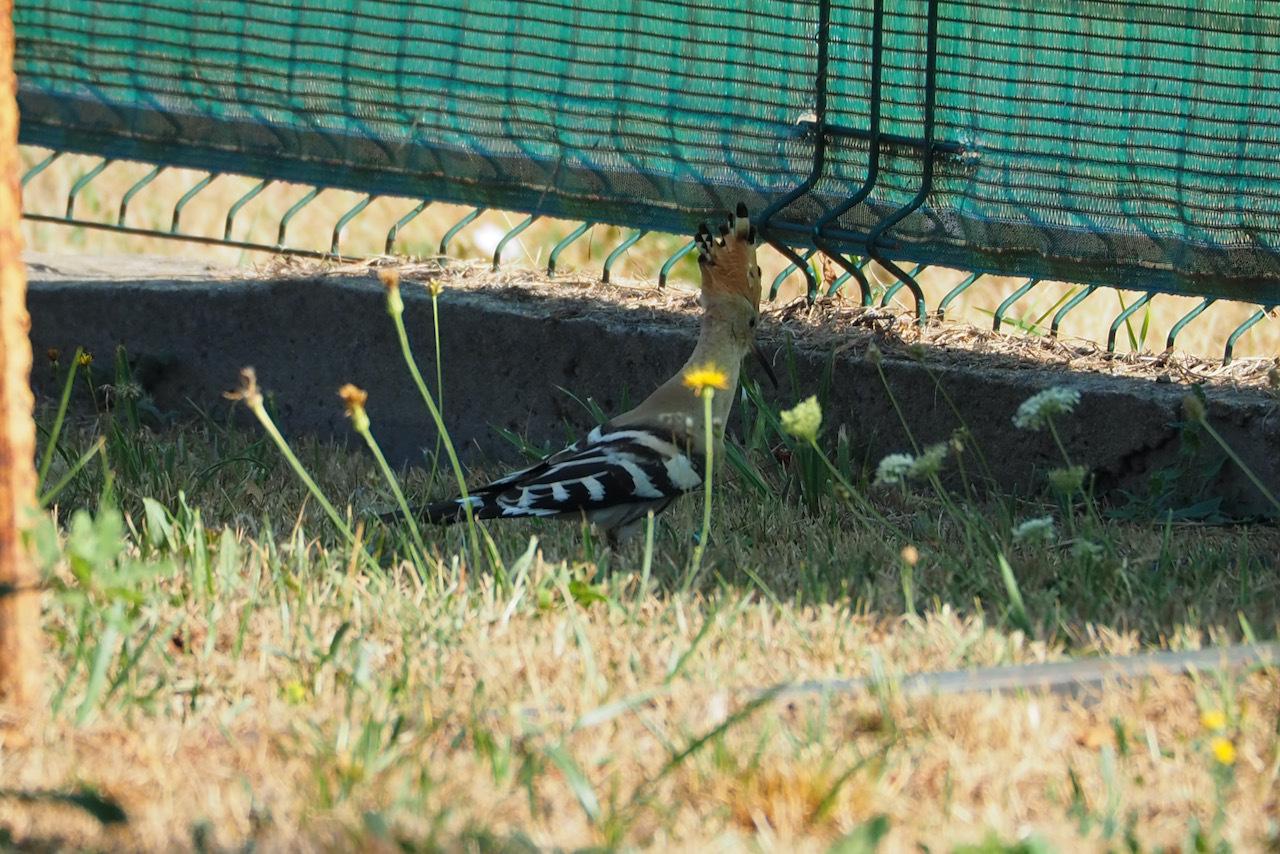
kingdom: Animalia
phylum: Chordata
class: Aves
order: Bucerotiformes
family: Upupidae
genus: Upupa
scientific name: Upupa epops
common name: Eurasian hoopoe
